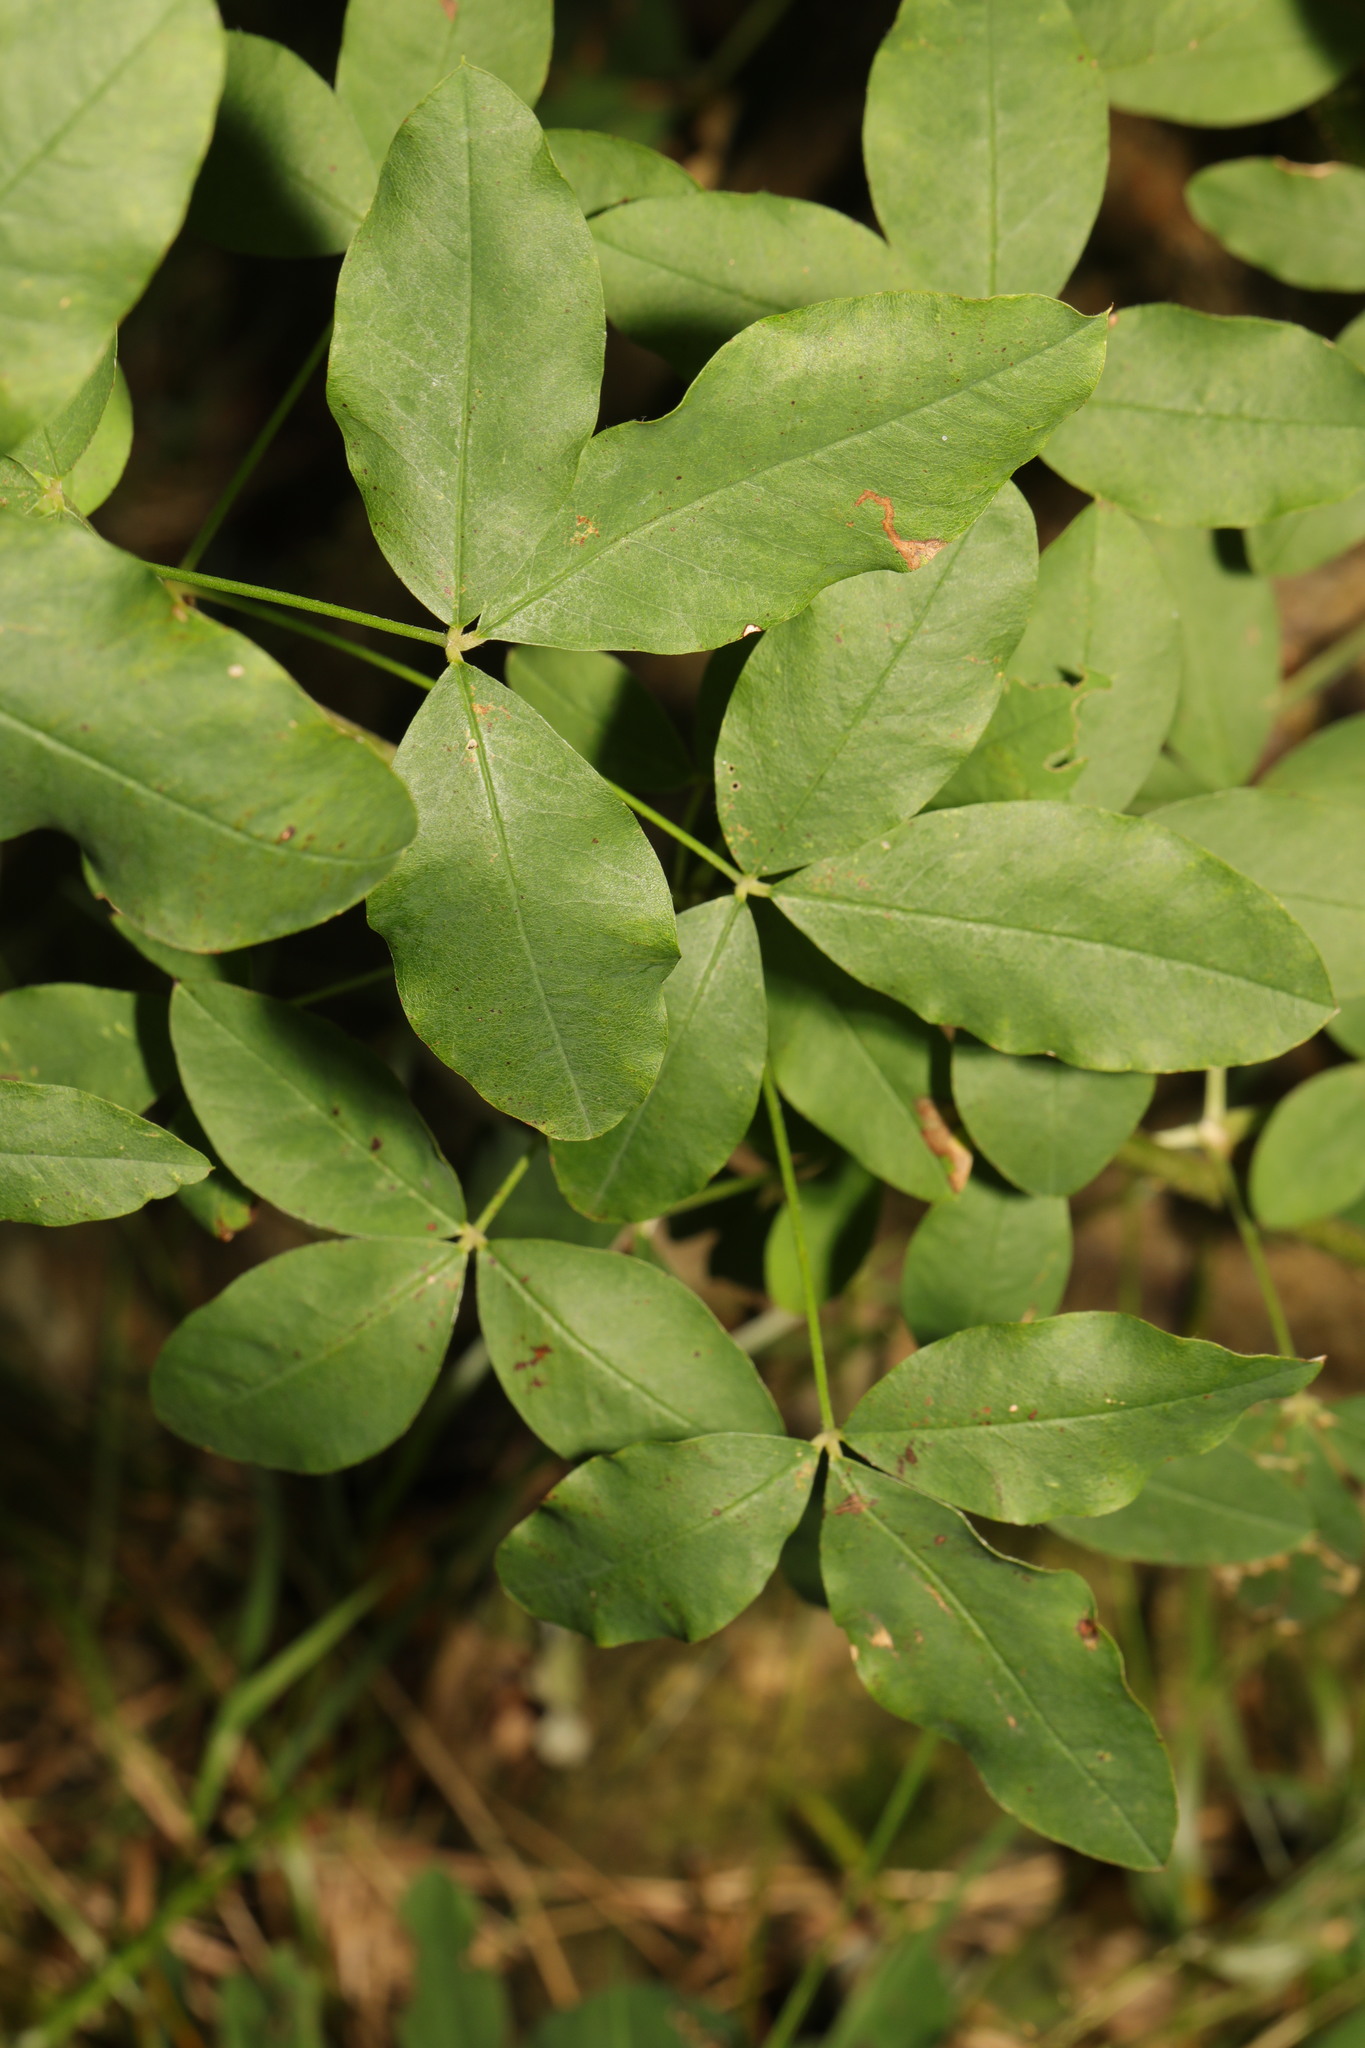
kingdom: Plantae
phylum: Tracheophyta
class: Magnoliopsida
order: Fabales
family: Fabaceae
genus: Laburnum
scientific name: Laburnum anagyroides
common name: Laburnum
